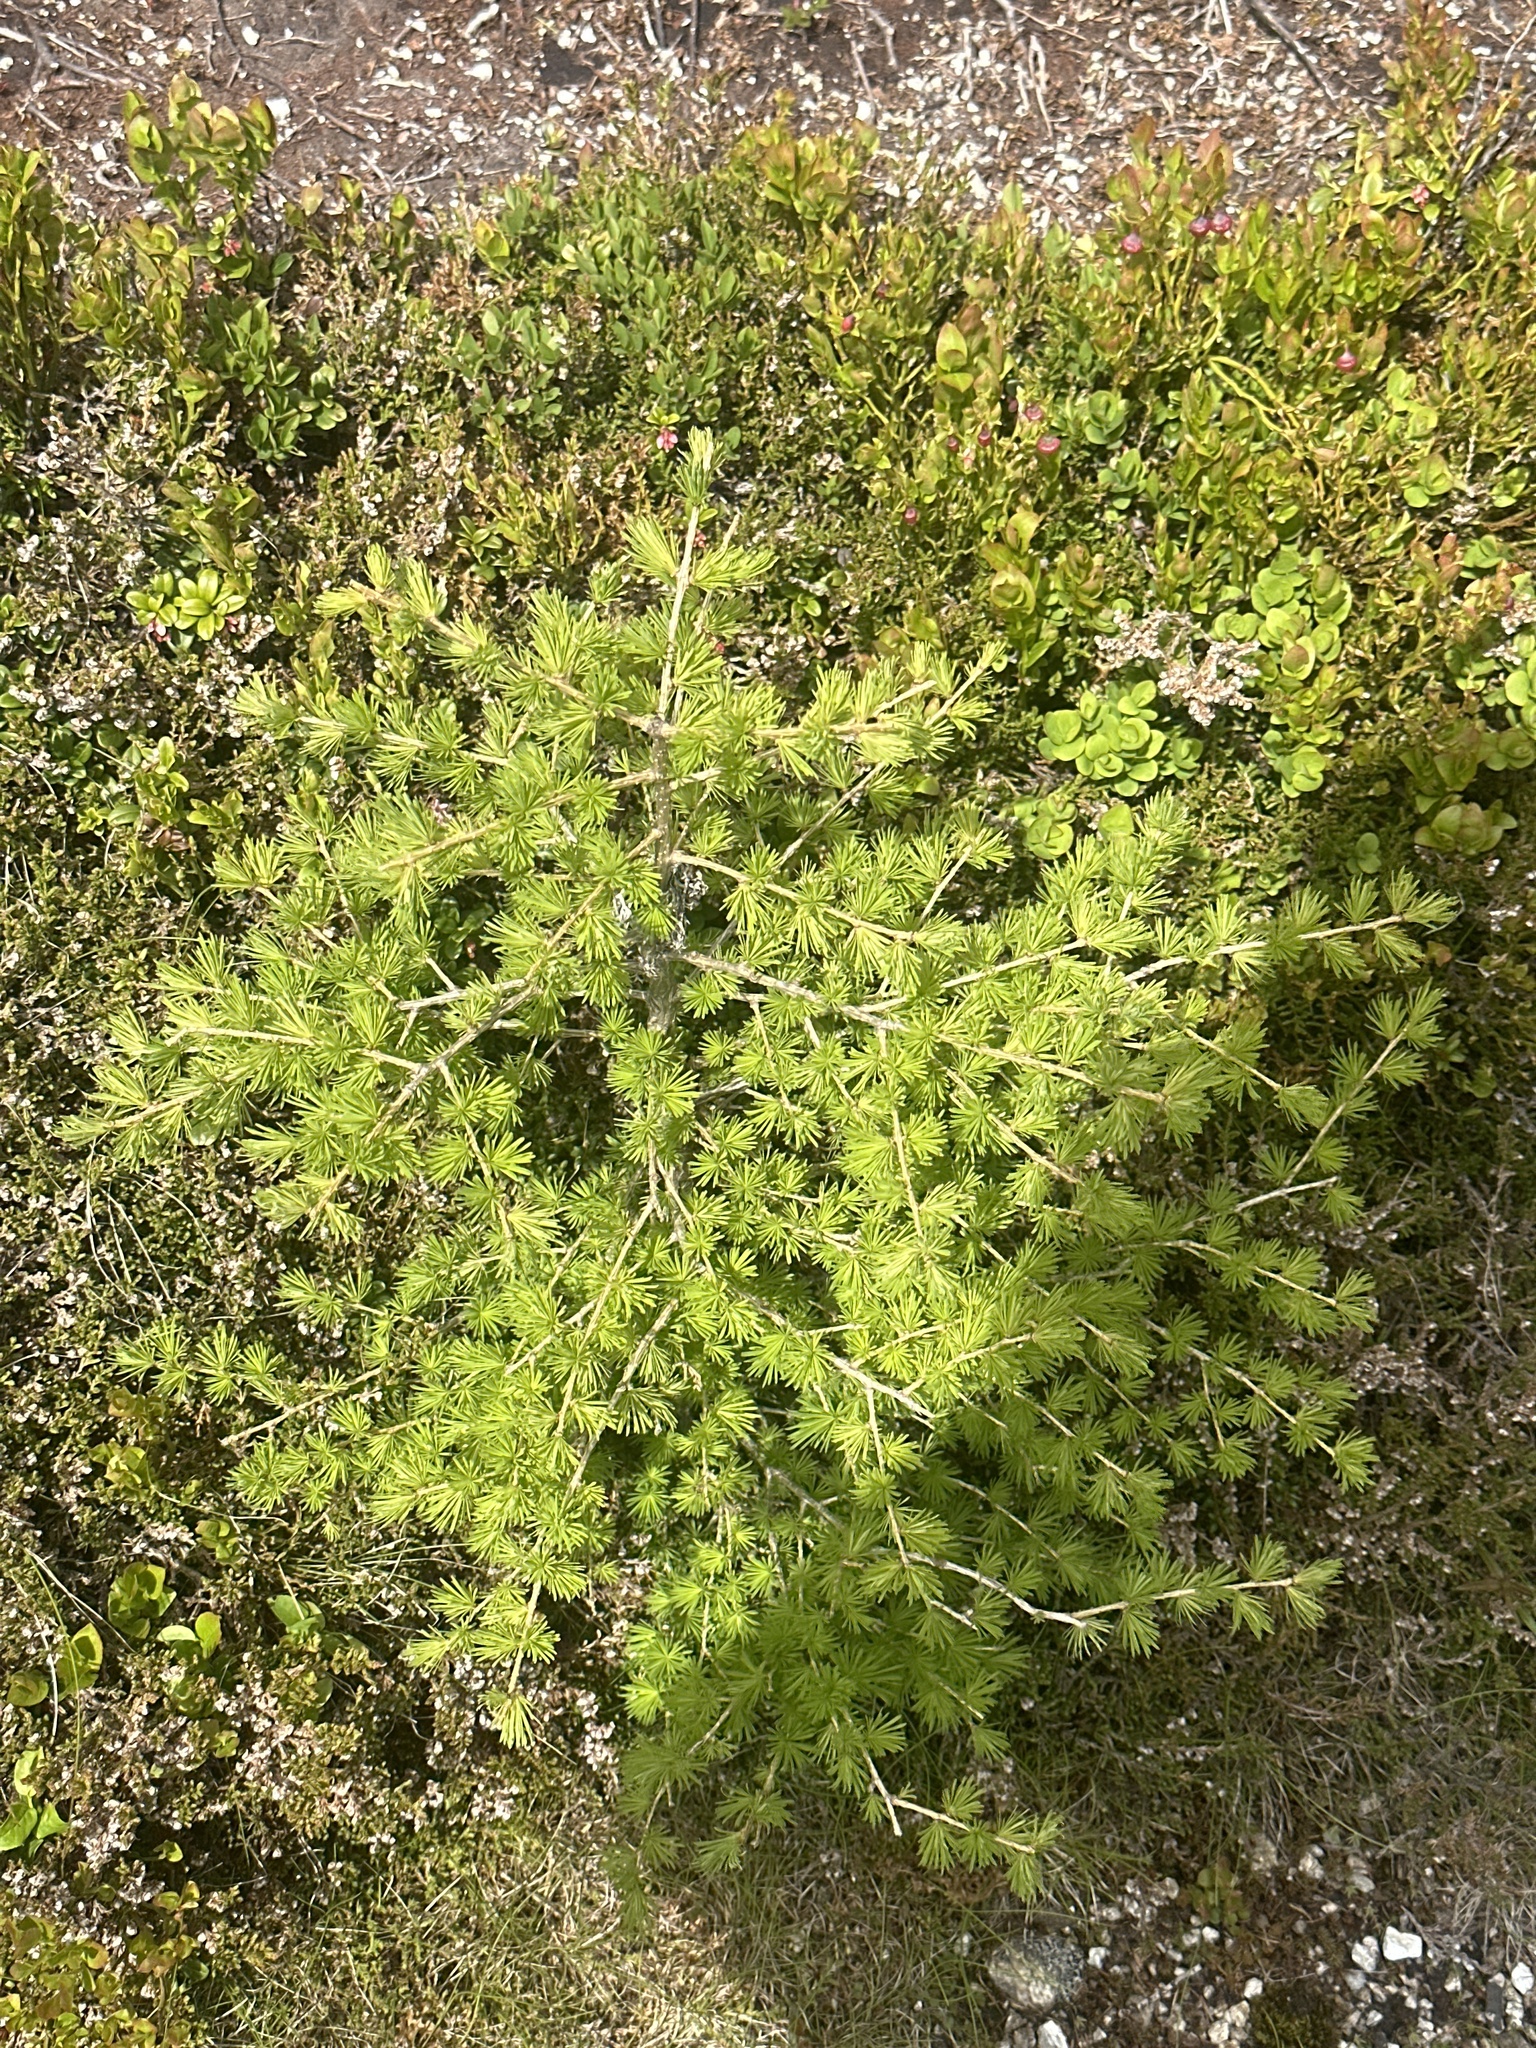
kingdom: Plantae
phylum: Tracheophyta
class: Pinopsida
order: Pinales
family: Pinaceae
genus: Larix
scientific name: Larix decidua
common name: European larch
